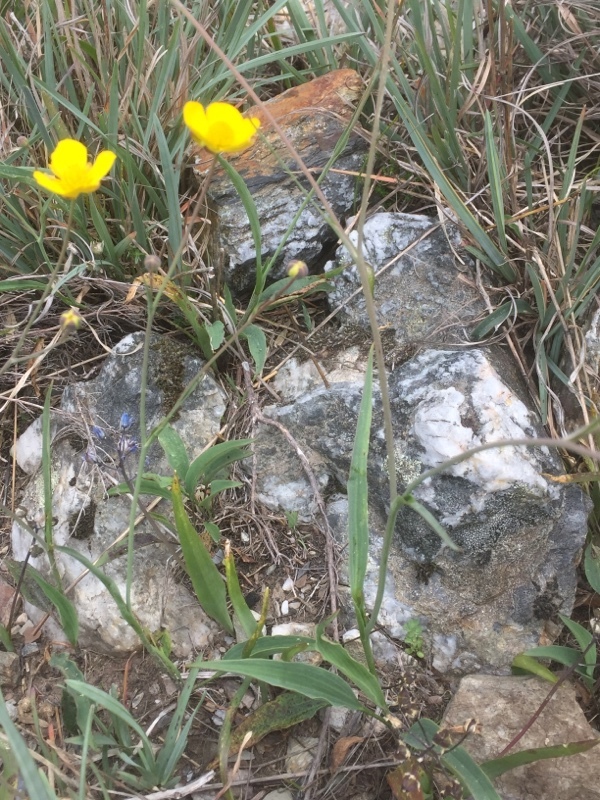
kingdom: Plantae
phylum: Tracheophyta
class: Magnoliopsida
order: Ranunculales
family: Ranunculaceae
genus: Ranunculus
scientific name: Ranunculus bupleuroides
